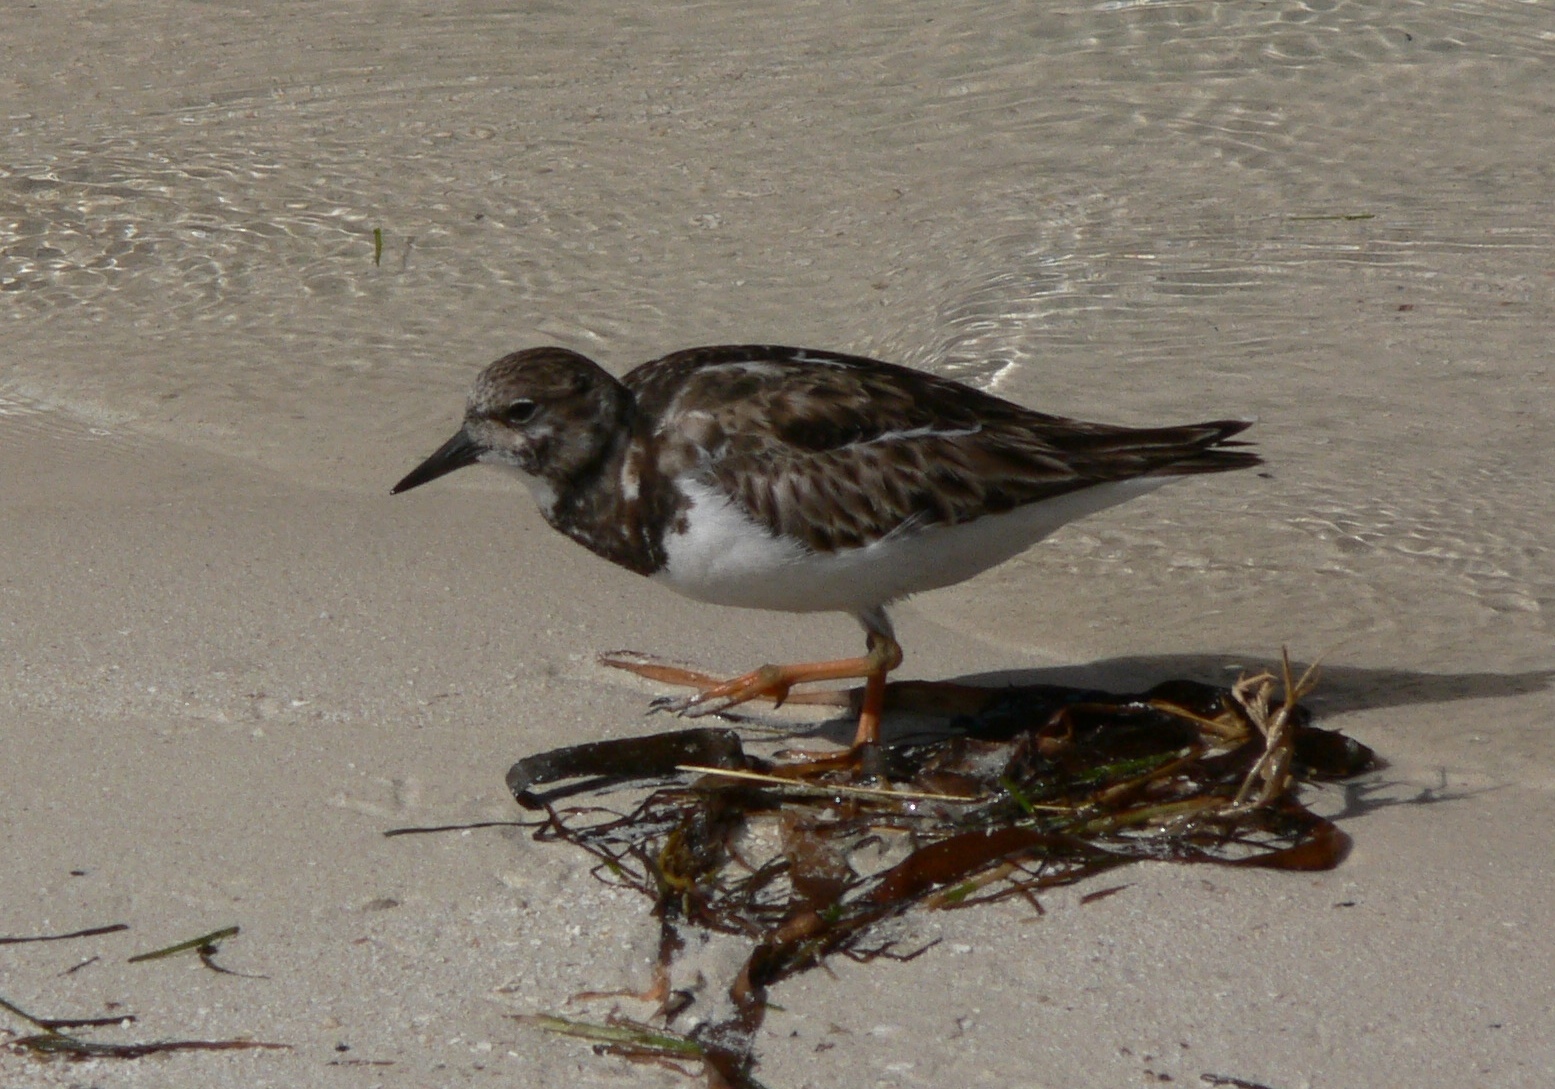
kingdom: Animalia
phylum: Chordata
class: Aves
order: Charadriiformes
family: Scolopacidae
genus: Arenaria
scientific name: Arenaria interpres
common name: Ruddy turnstone
